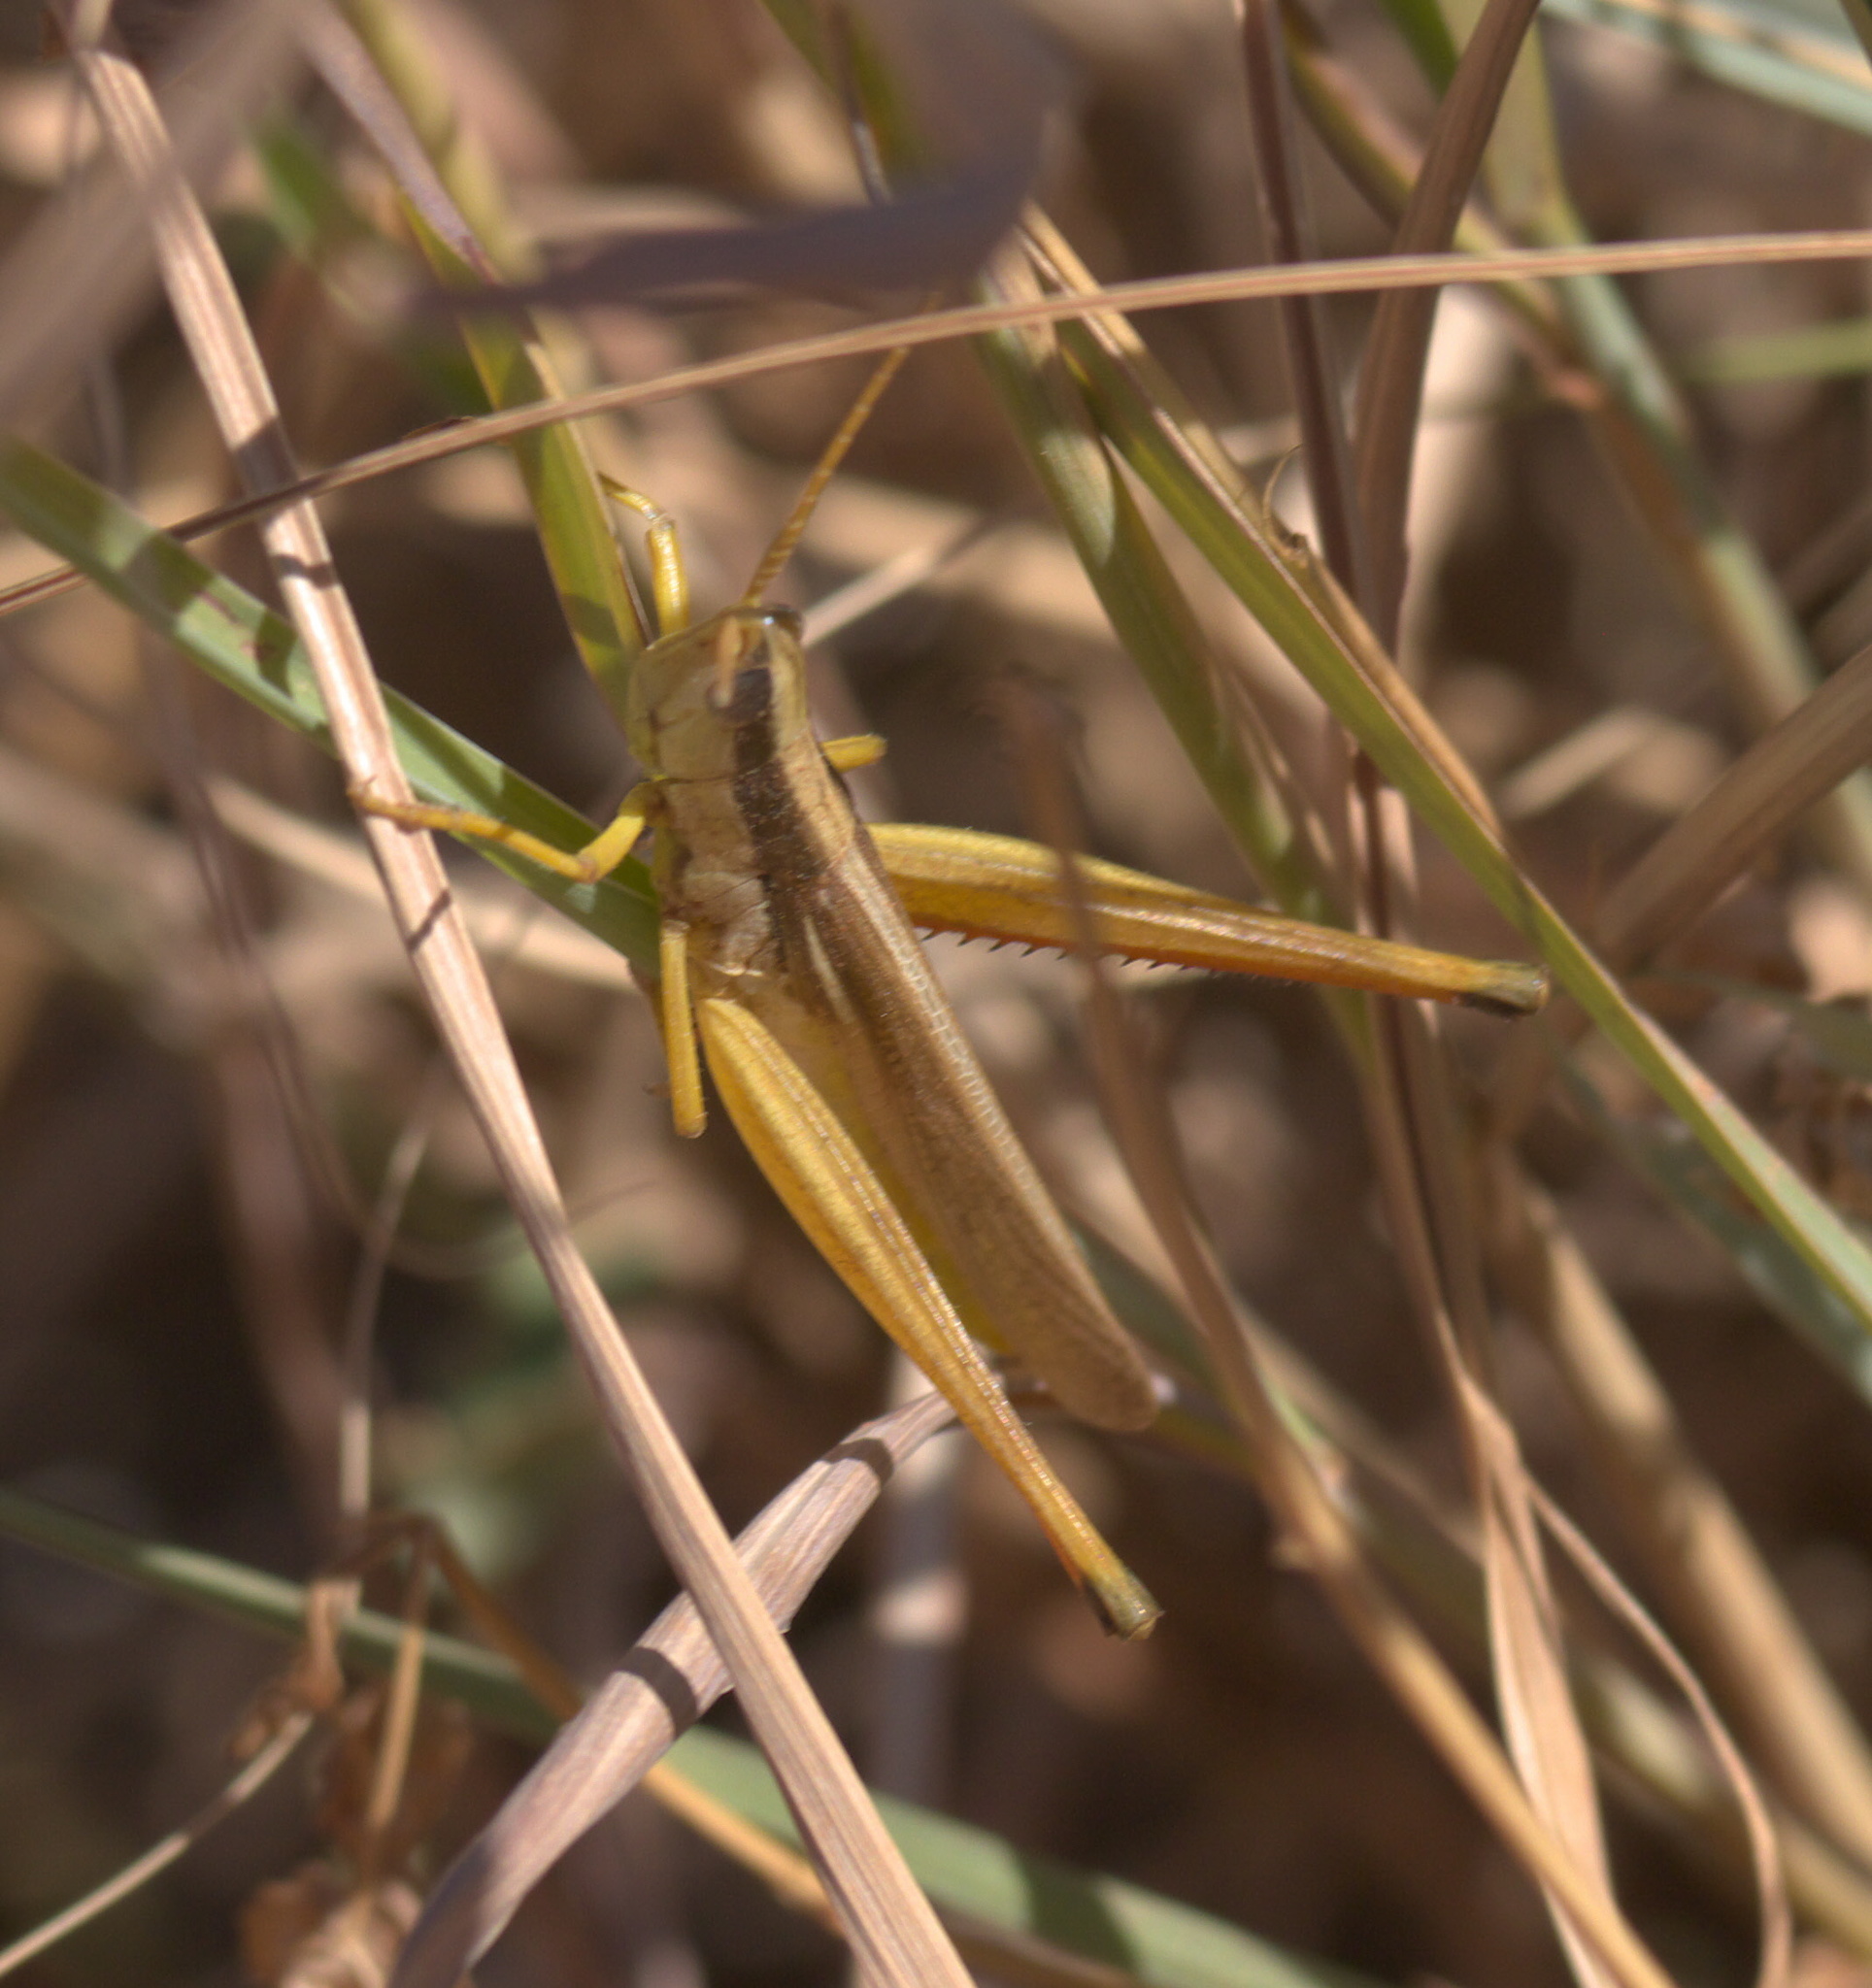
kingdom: Animalia
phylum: Arthropoda
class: Insecta
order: Orthoptera
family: Acrididae
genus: Mermiria
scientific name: Mermiria bivittata
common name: Two-striped mermiria grasshopper
